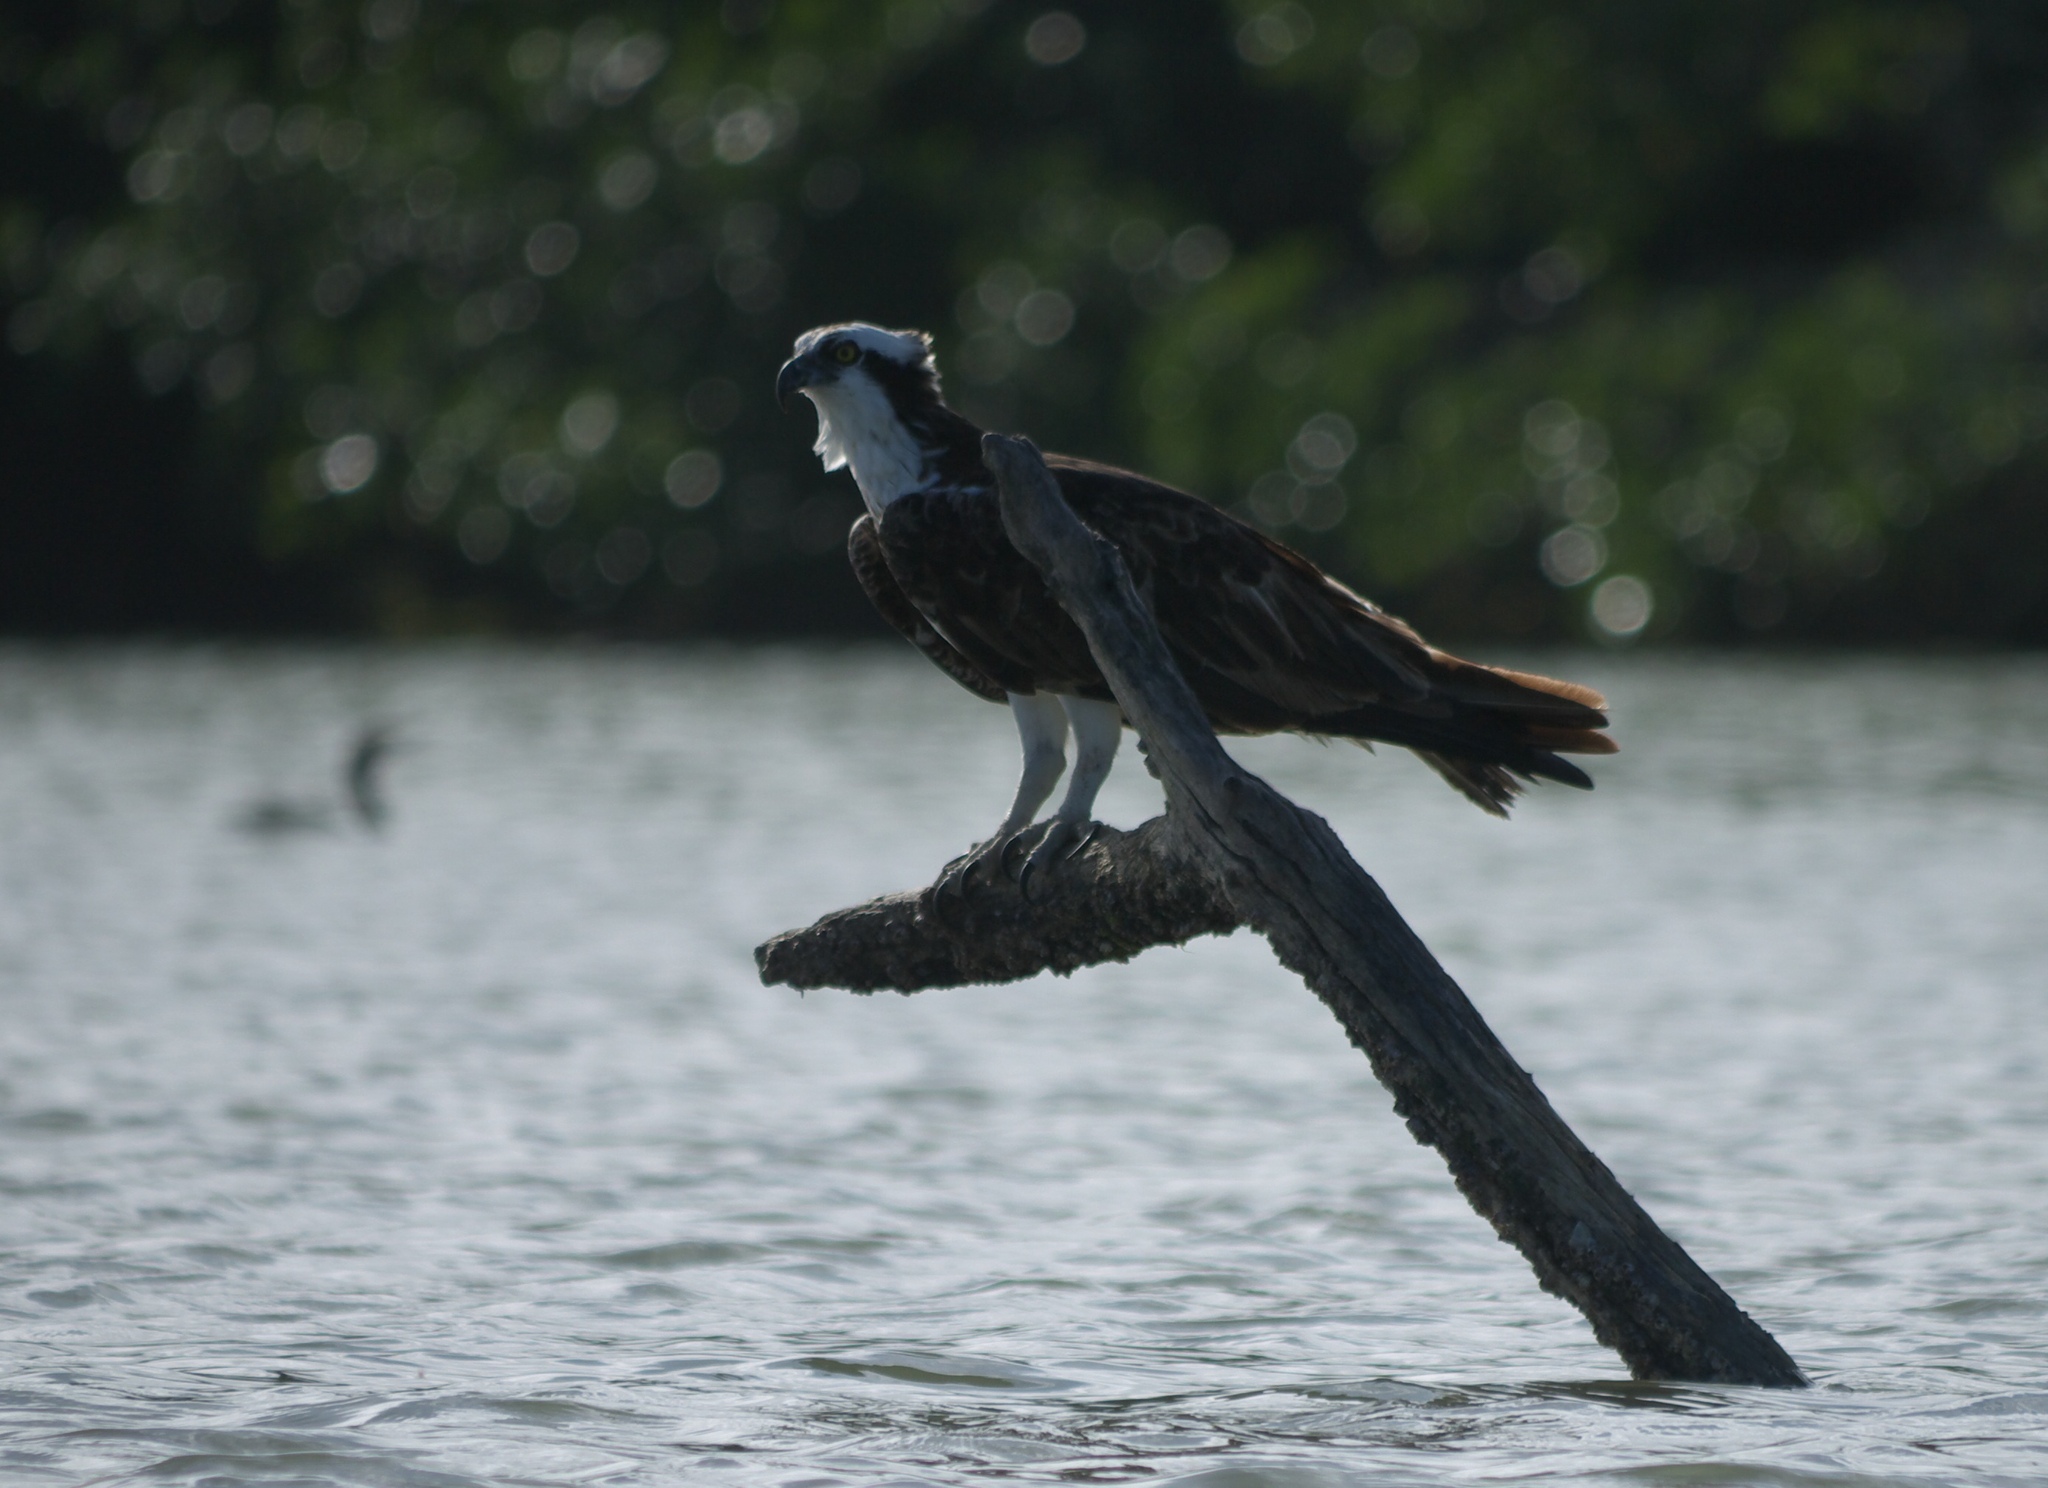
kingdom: Animalia
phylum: Chordata
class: Aves
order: Accipitriformes
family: Pandionidae
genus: Pandion
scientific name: Pandion haliaetus
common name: Osprey
